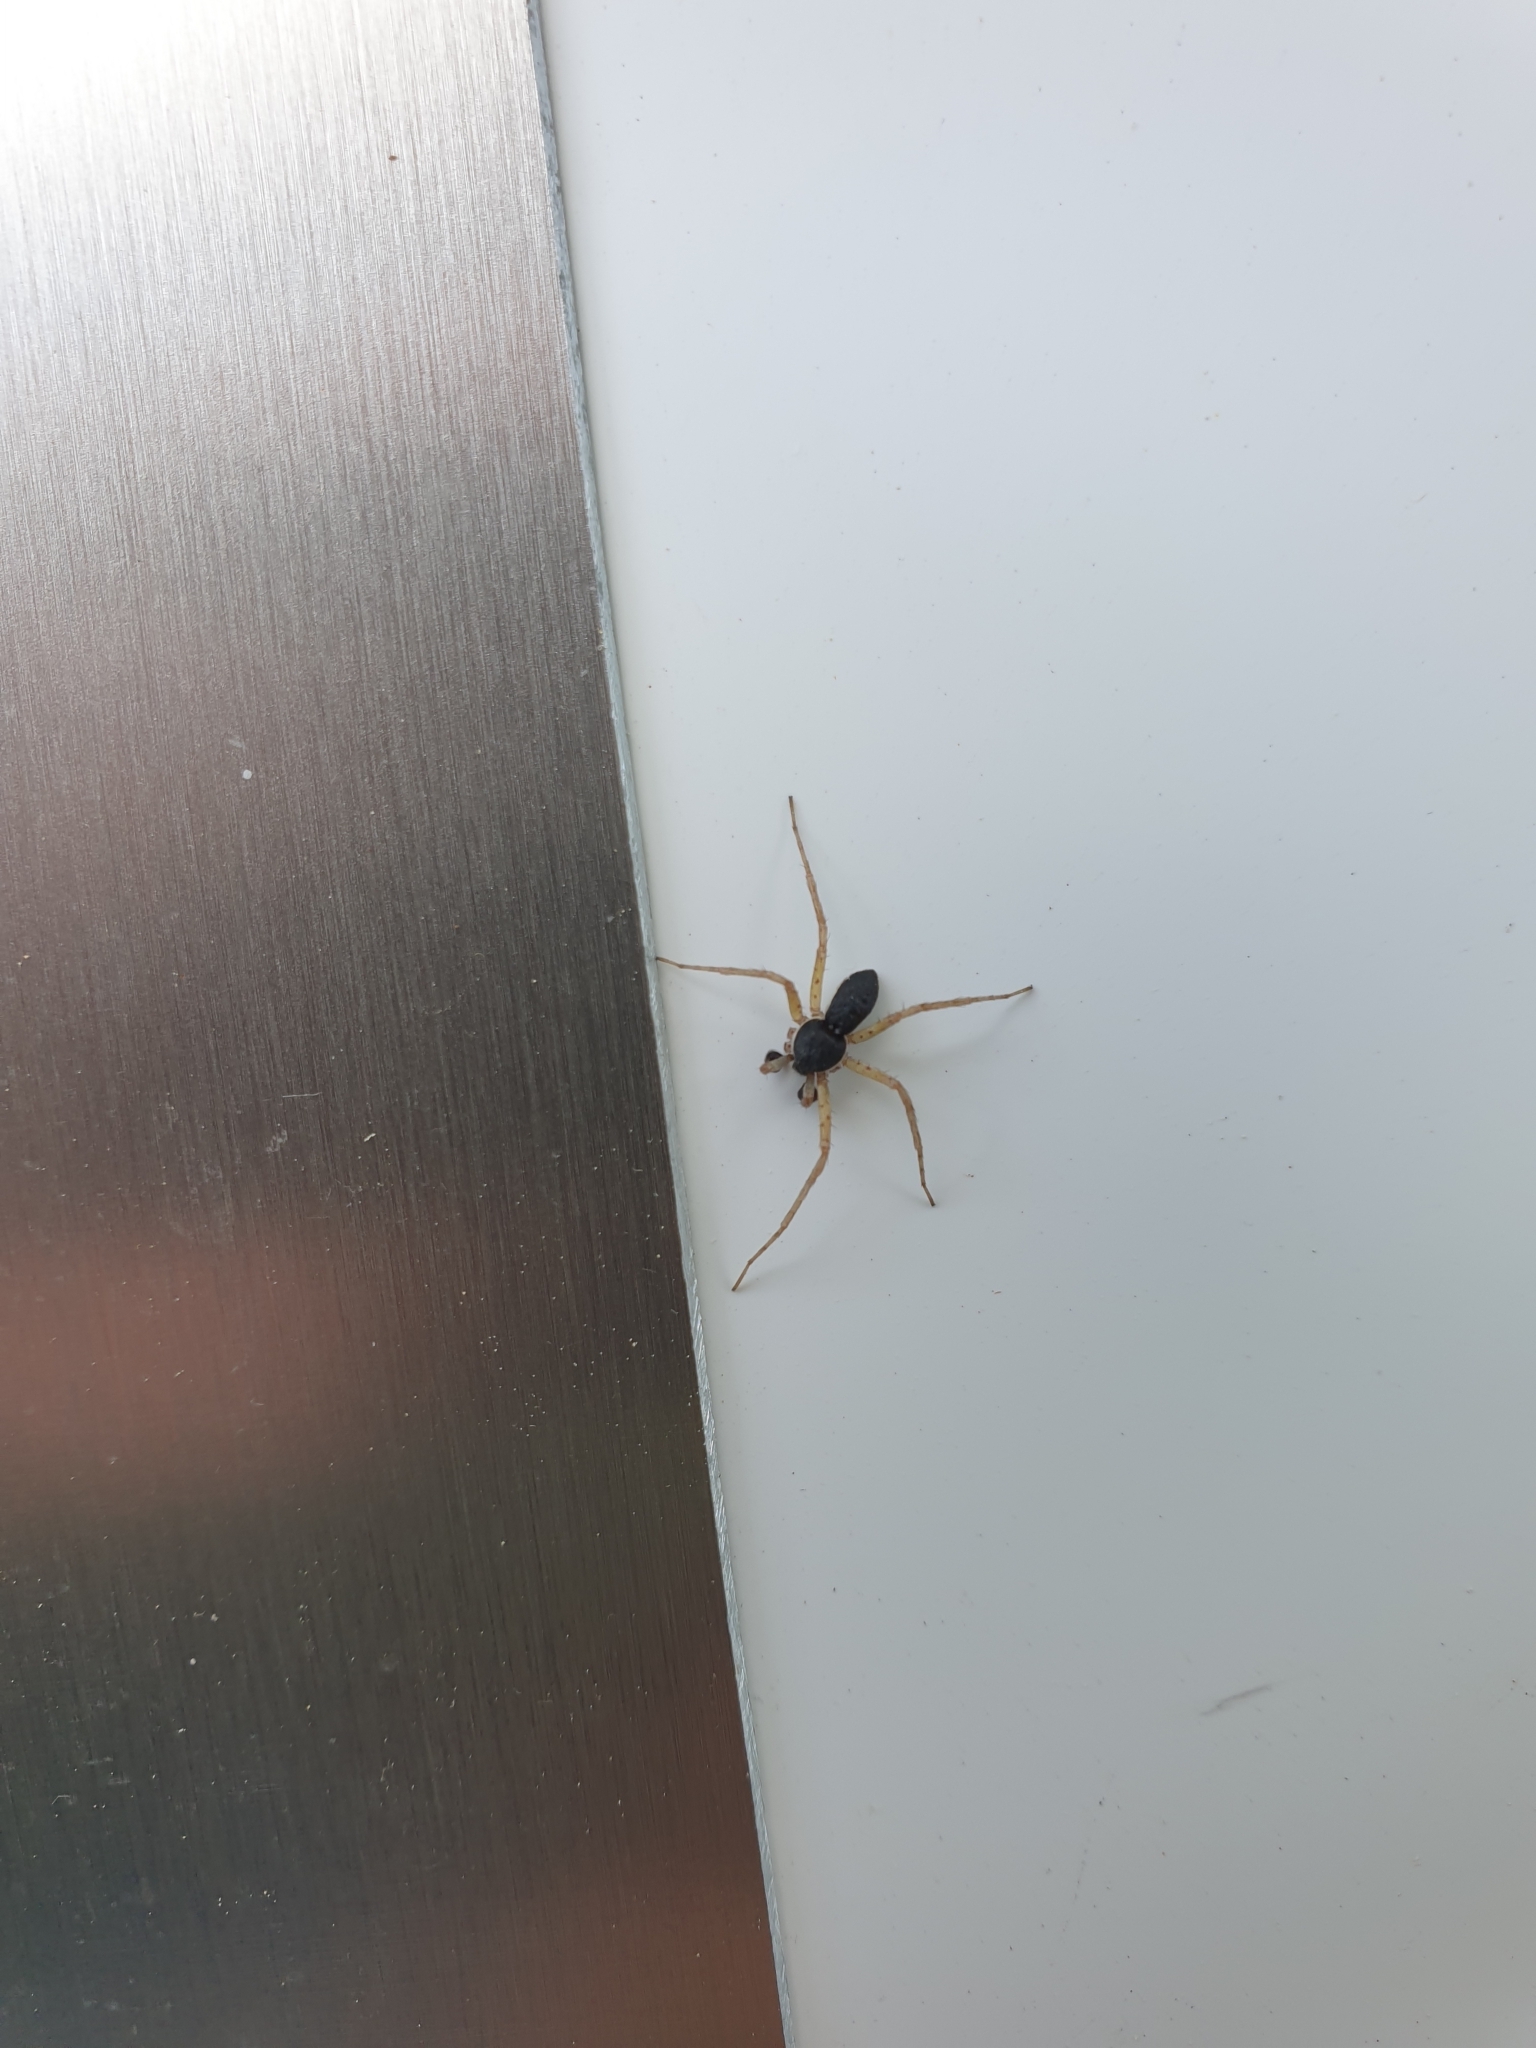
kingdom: Animalia
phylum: Arthropoda
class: Arachnida
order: Araneae
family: Philodromidae
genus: Philodromus
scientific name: Philodromus dispar
